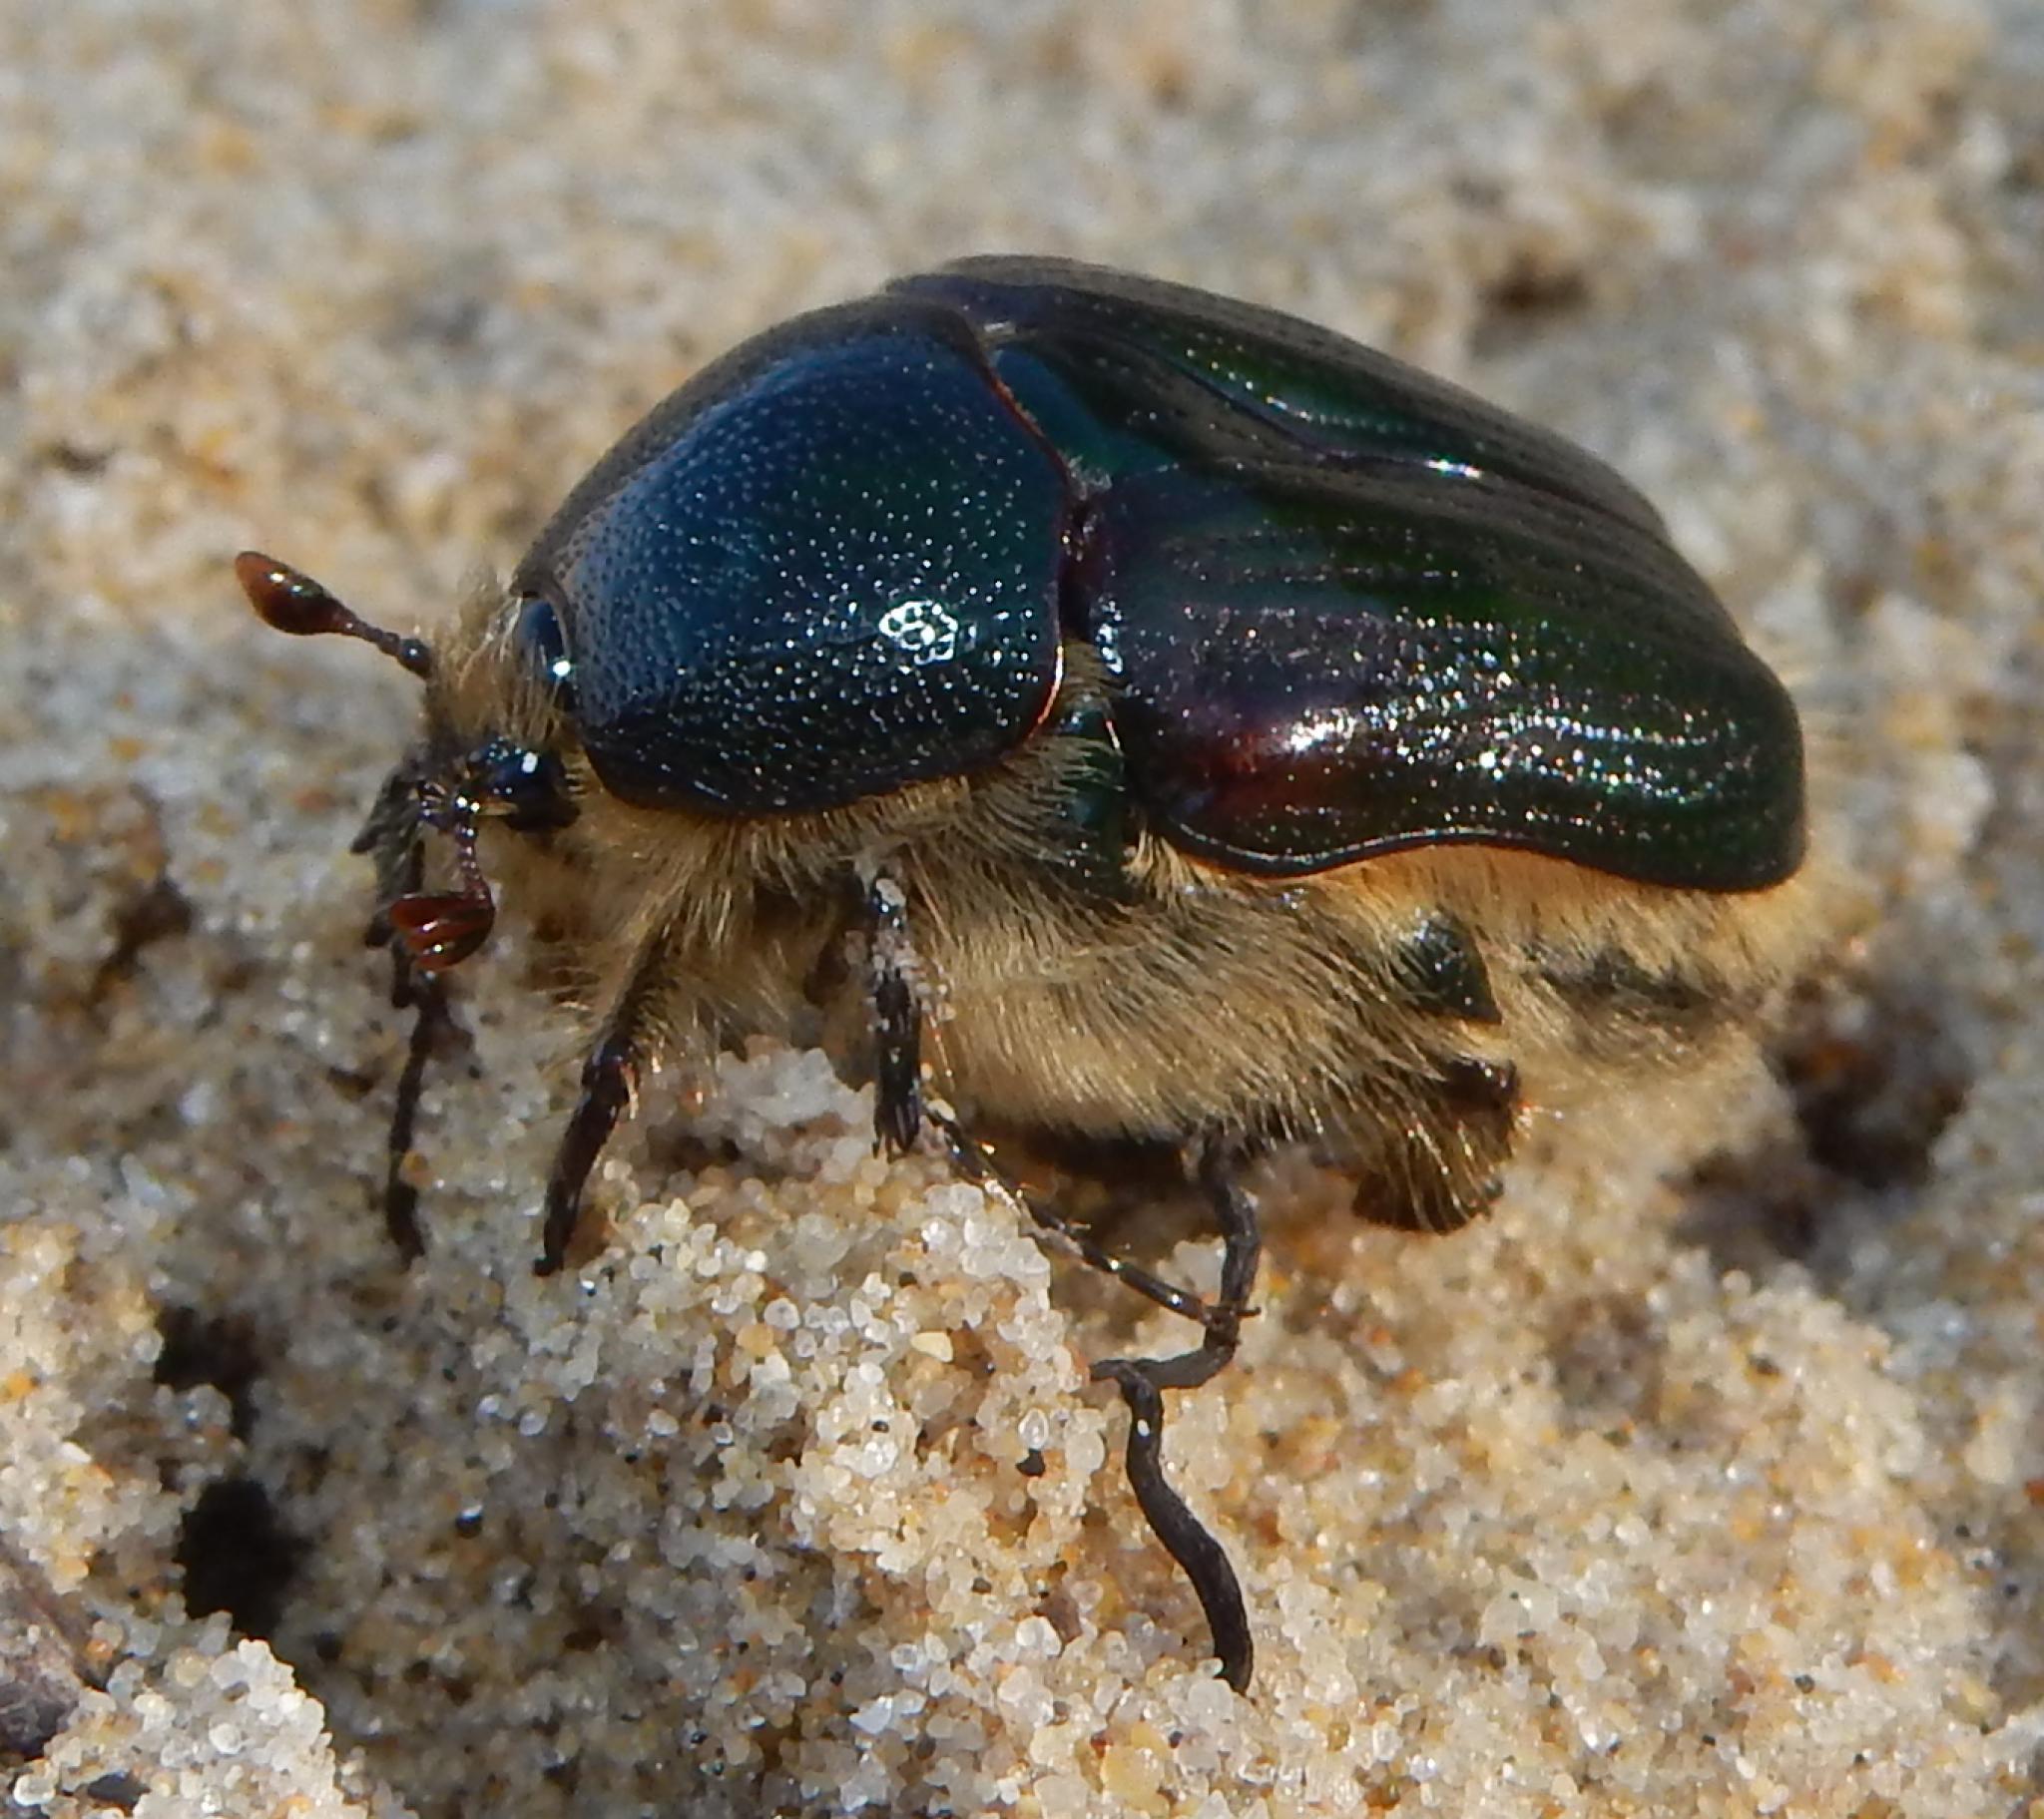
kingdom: Animalia
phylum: Arthropoda
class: Insecta
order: Coleoptera
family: Scarabaeidae
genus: Anoplocheilus
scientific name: Anoplocheilus variabilis
